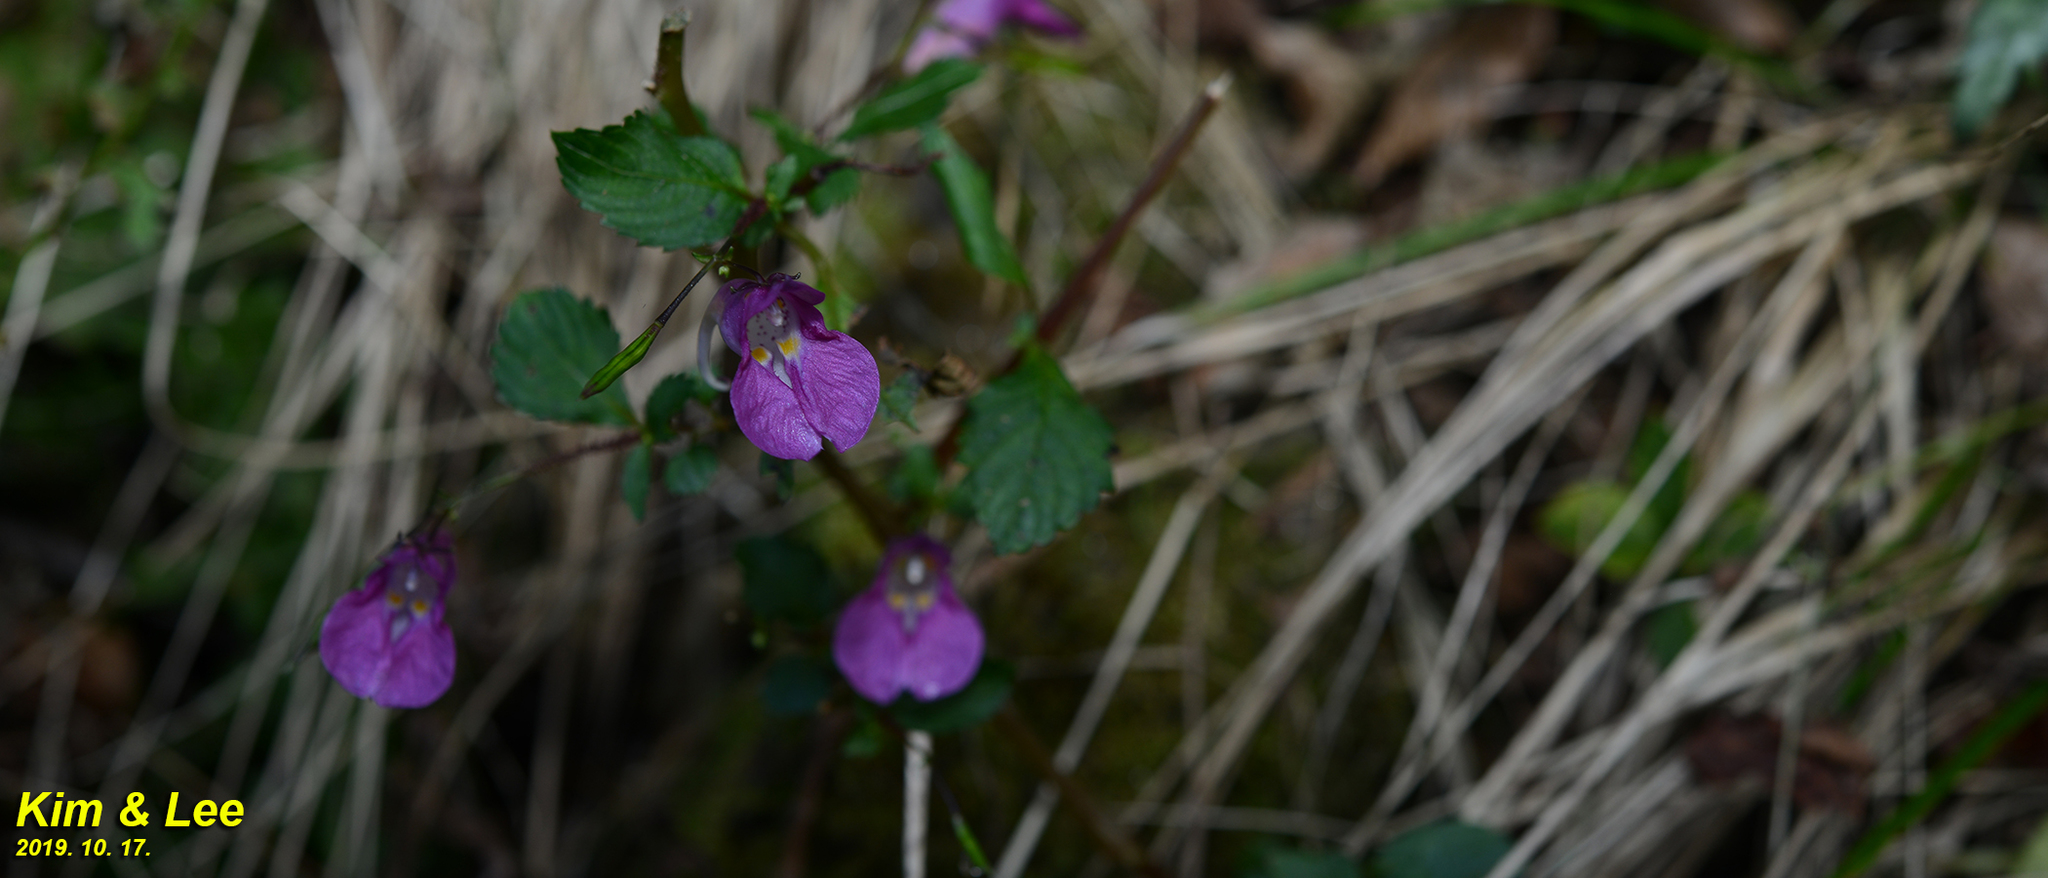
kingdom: Plantae
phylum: Tracheophyta
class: Magnoliopsida
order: Ericales
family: Balsaminaceae
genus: Impatiens
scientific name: Impatiens textorii
